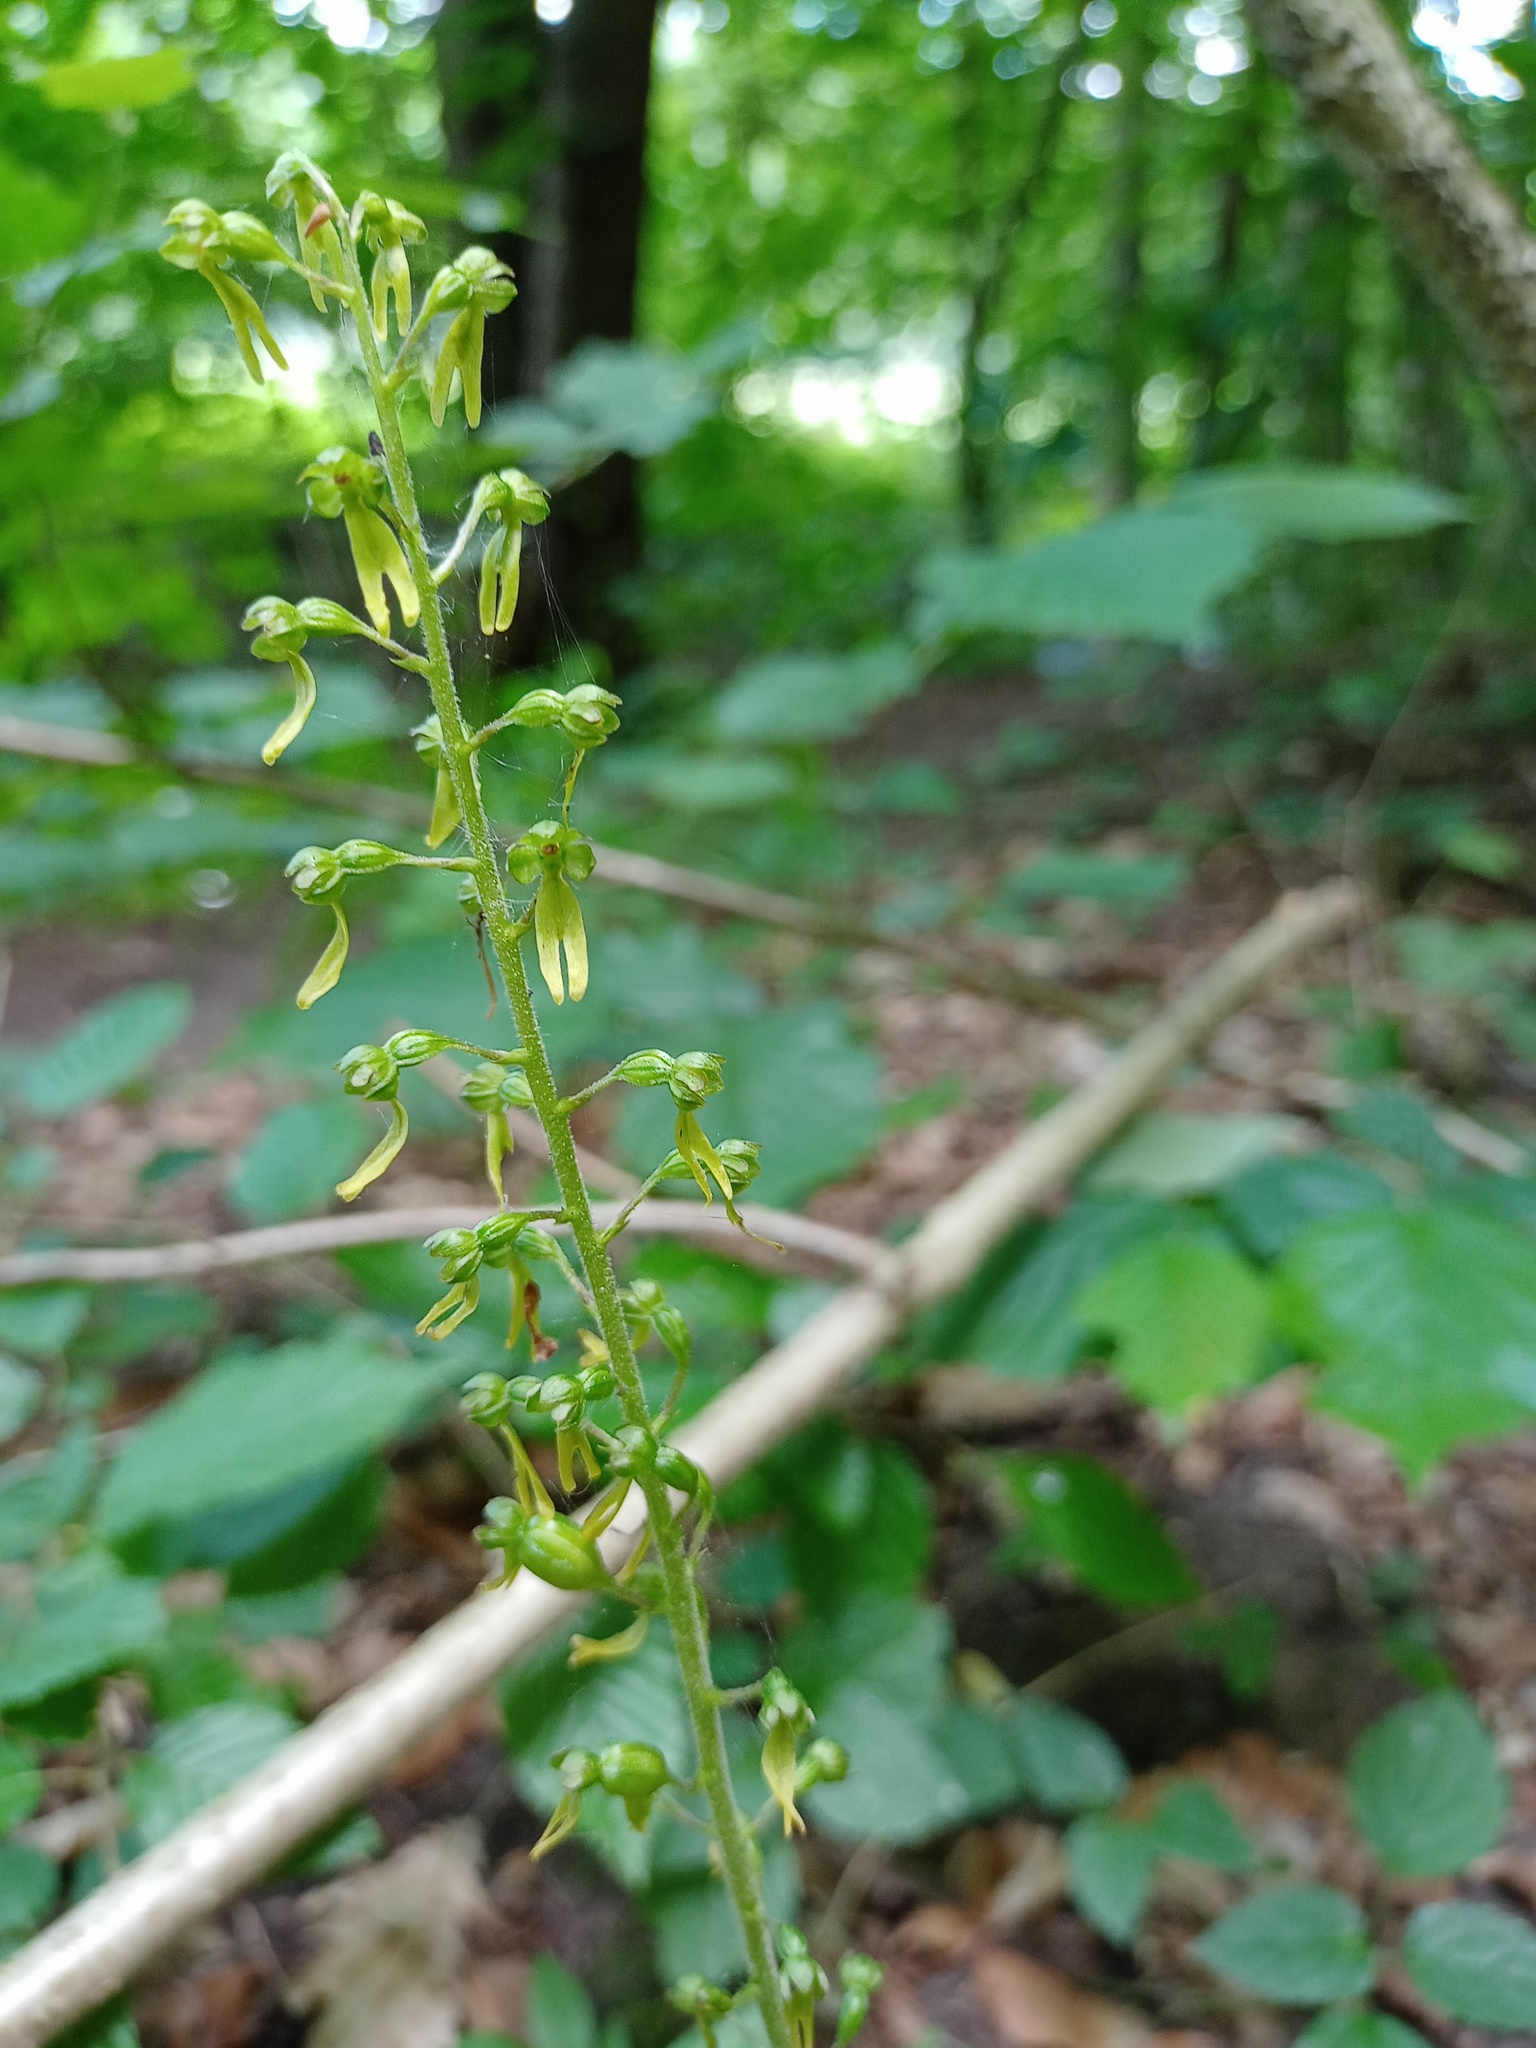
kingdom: Plantae
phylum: Tracheophyta
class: Liliopsida
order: Asparagales
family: Orchidaceae
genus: Neottia
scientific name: Neottia ovata
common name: Common twayblade
